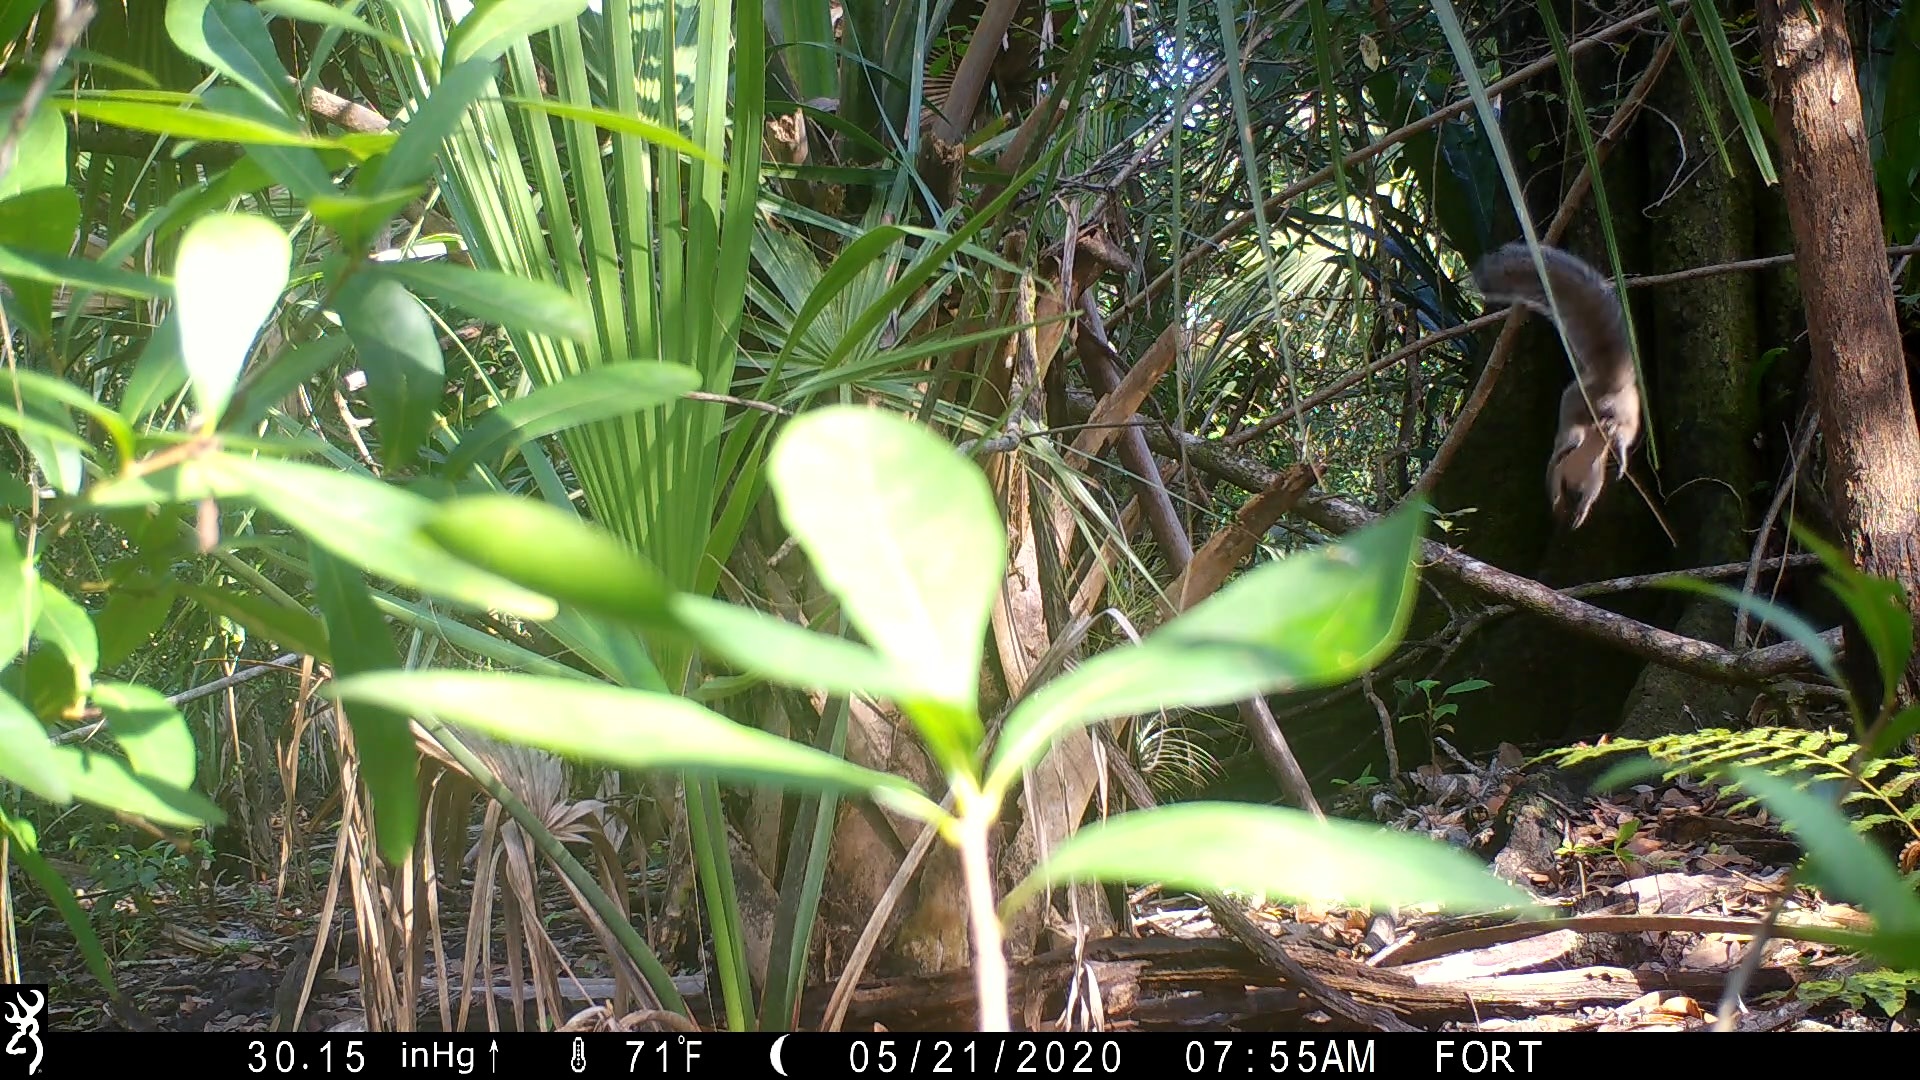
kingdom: Animalia
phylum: Chordata
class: Mammalia
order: Rodentia
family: Sciuridae
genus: Sciurus
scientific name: Sciurus carolinensis
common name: Eastern gray squirrel
